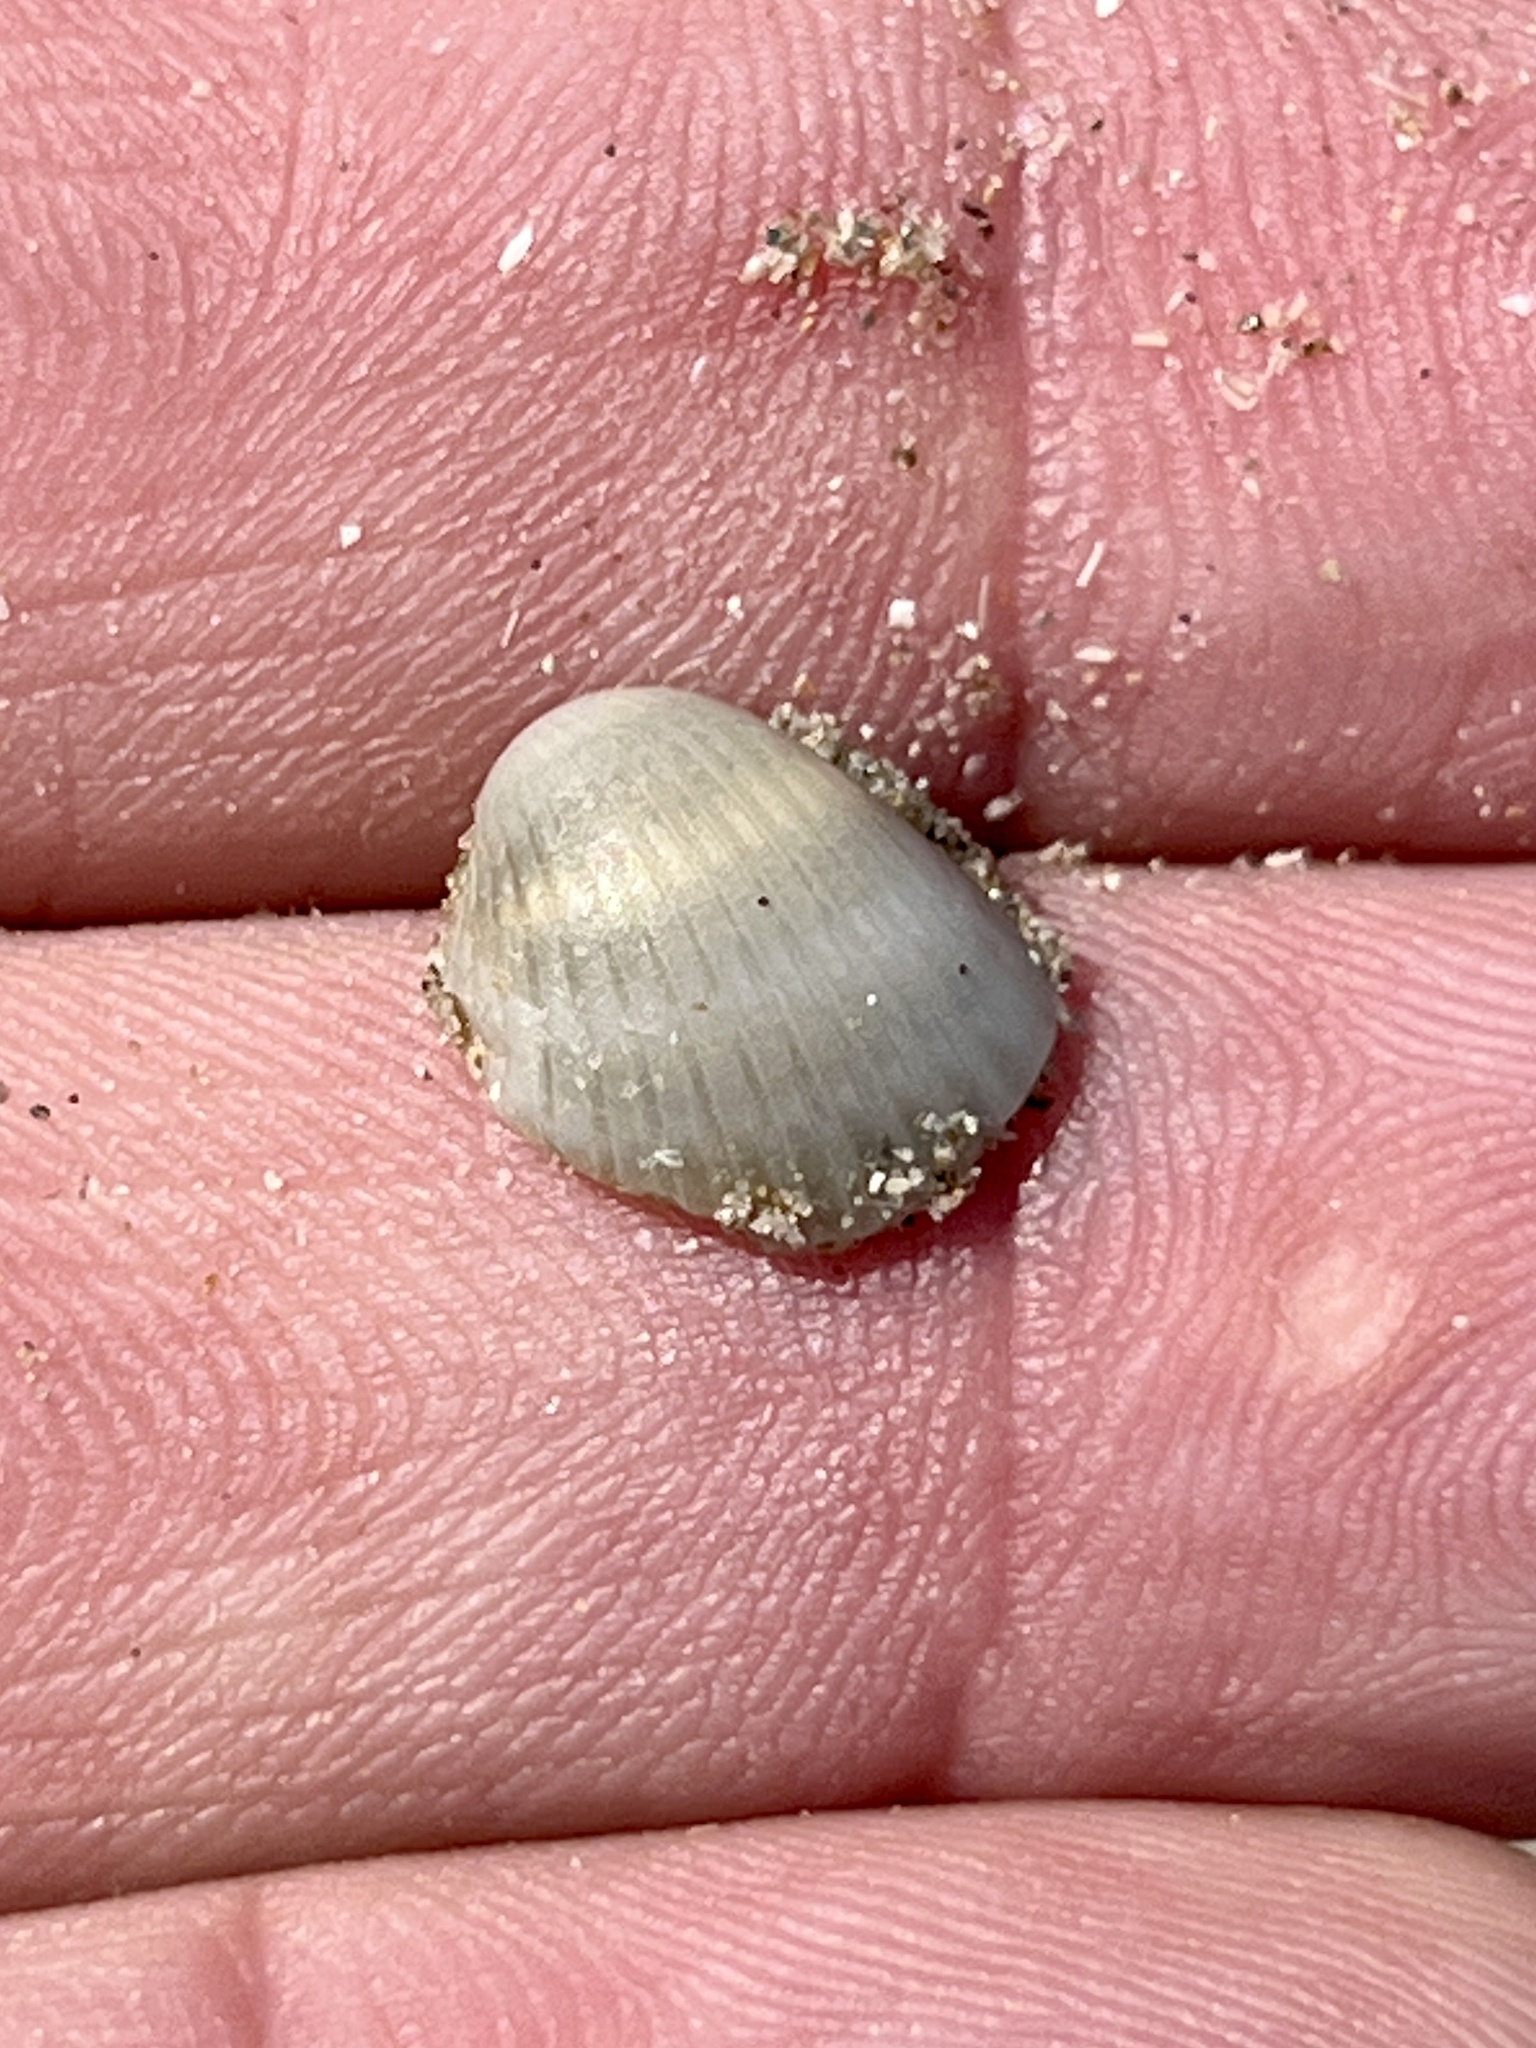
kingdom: Animalia
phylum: Mollusca
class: Bivalvia
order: Arcida
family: Arcidae
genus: Anadara
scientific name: Anadara chemnitzii
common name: Chemnitz's triangular ark
